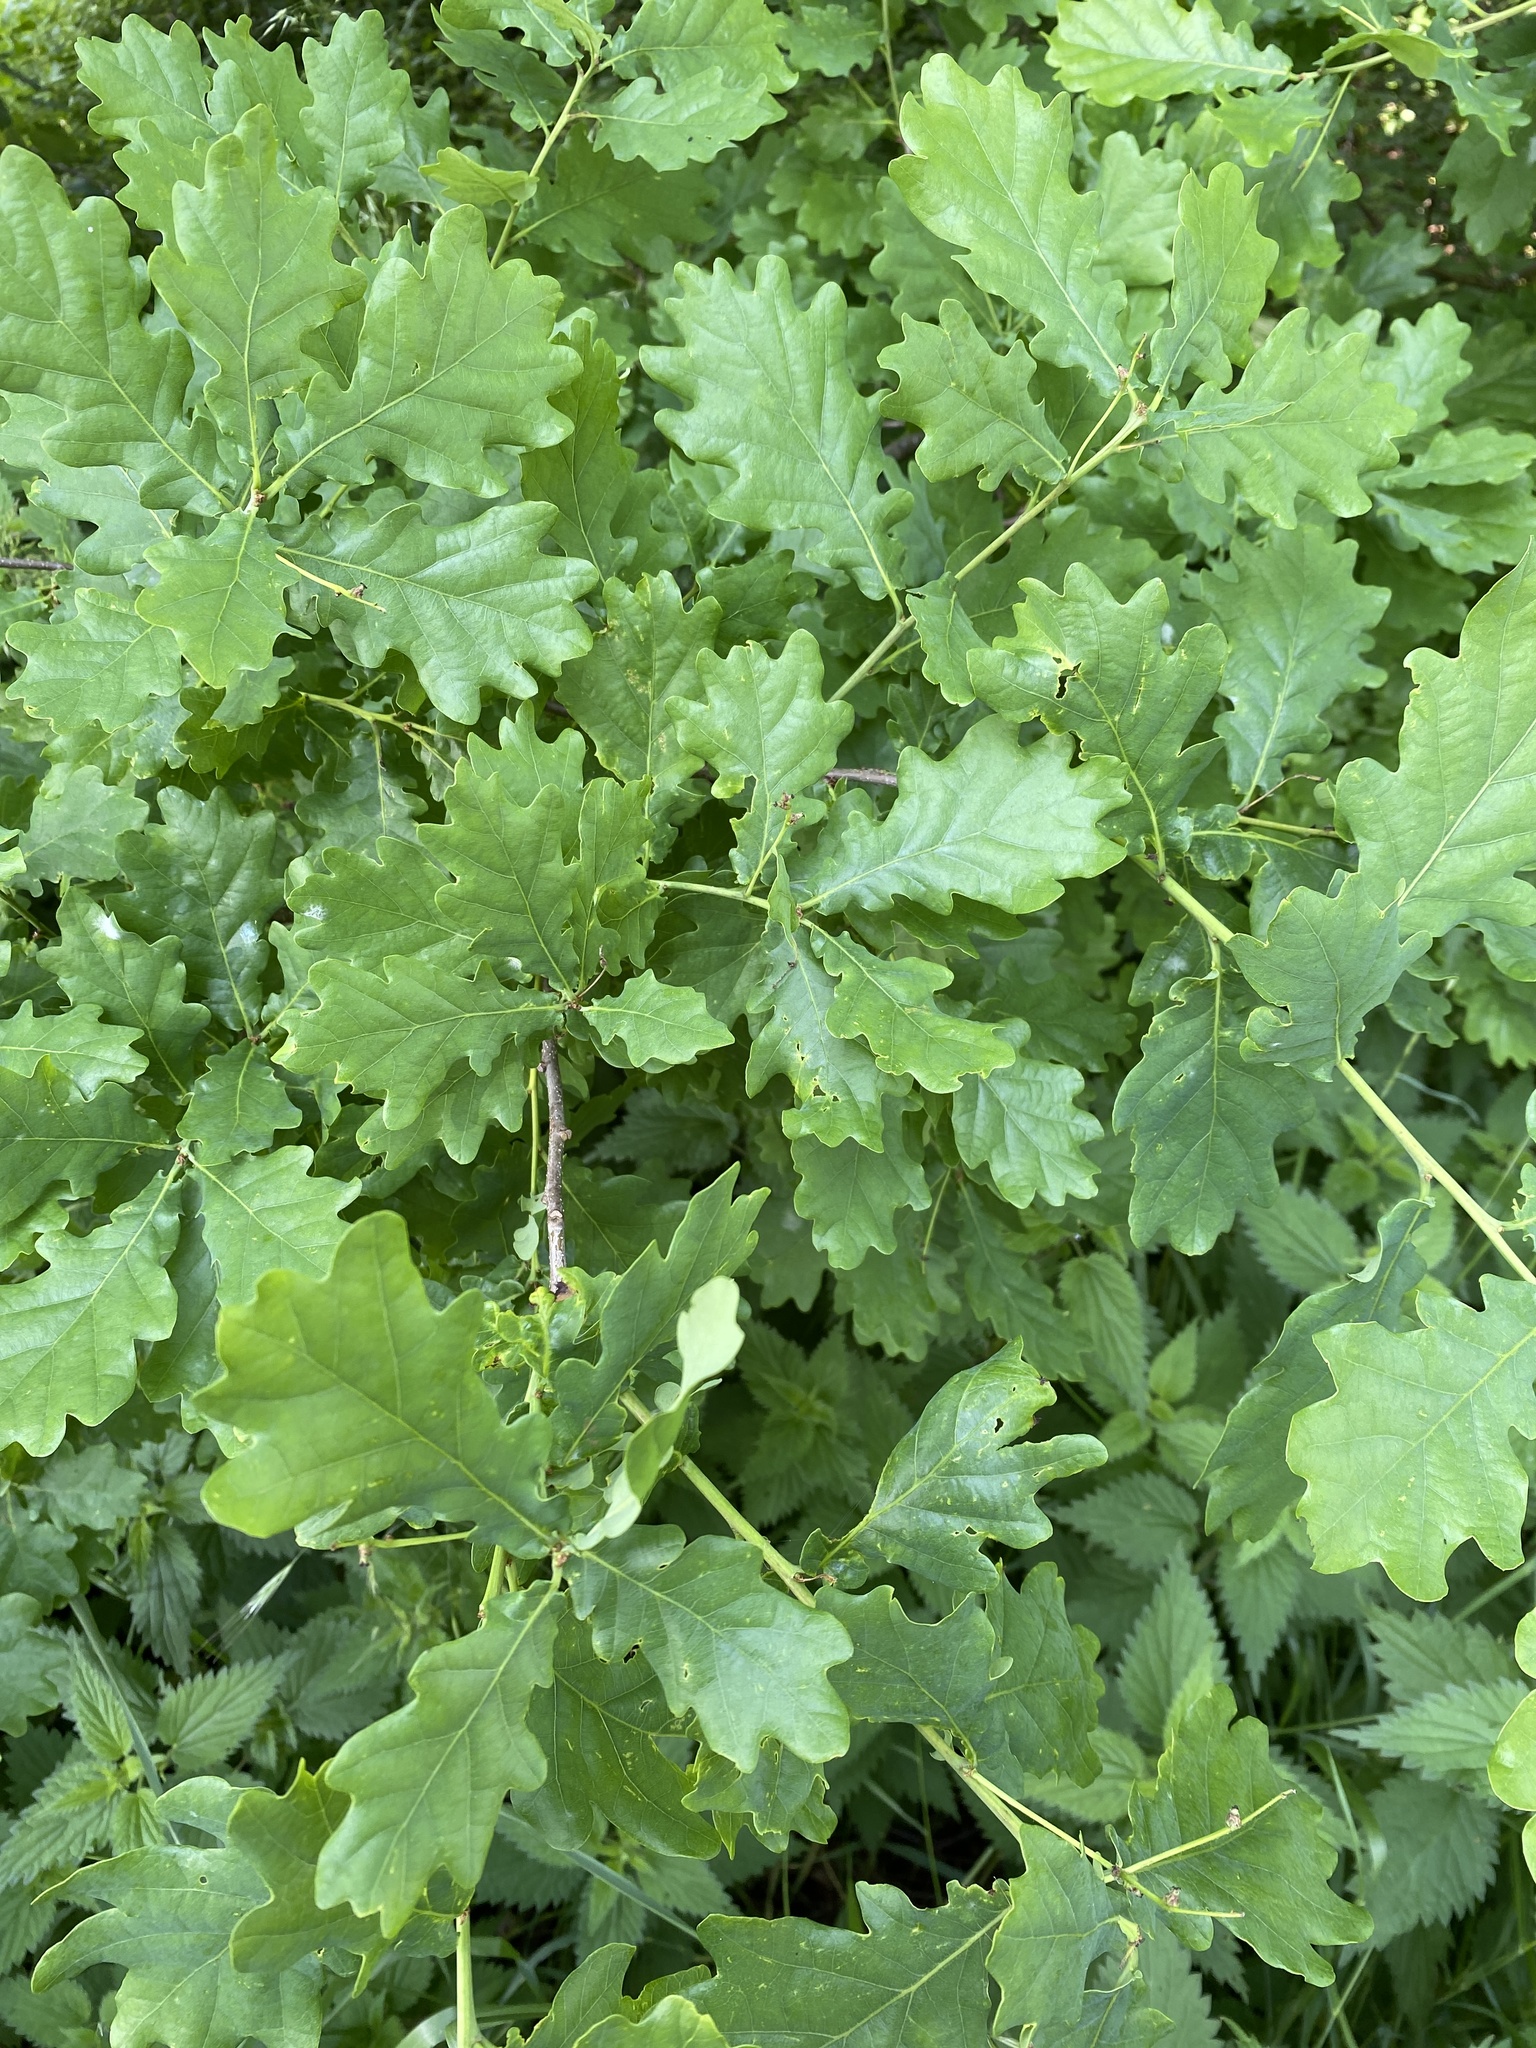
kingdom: Plantae
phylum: Tracheophyta
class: Magnoliopsida
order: Fagales
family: Fagaceae
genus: Quercus
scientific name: Quercus robur
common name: Pedunculate oak
